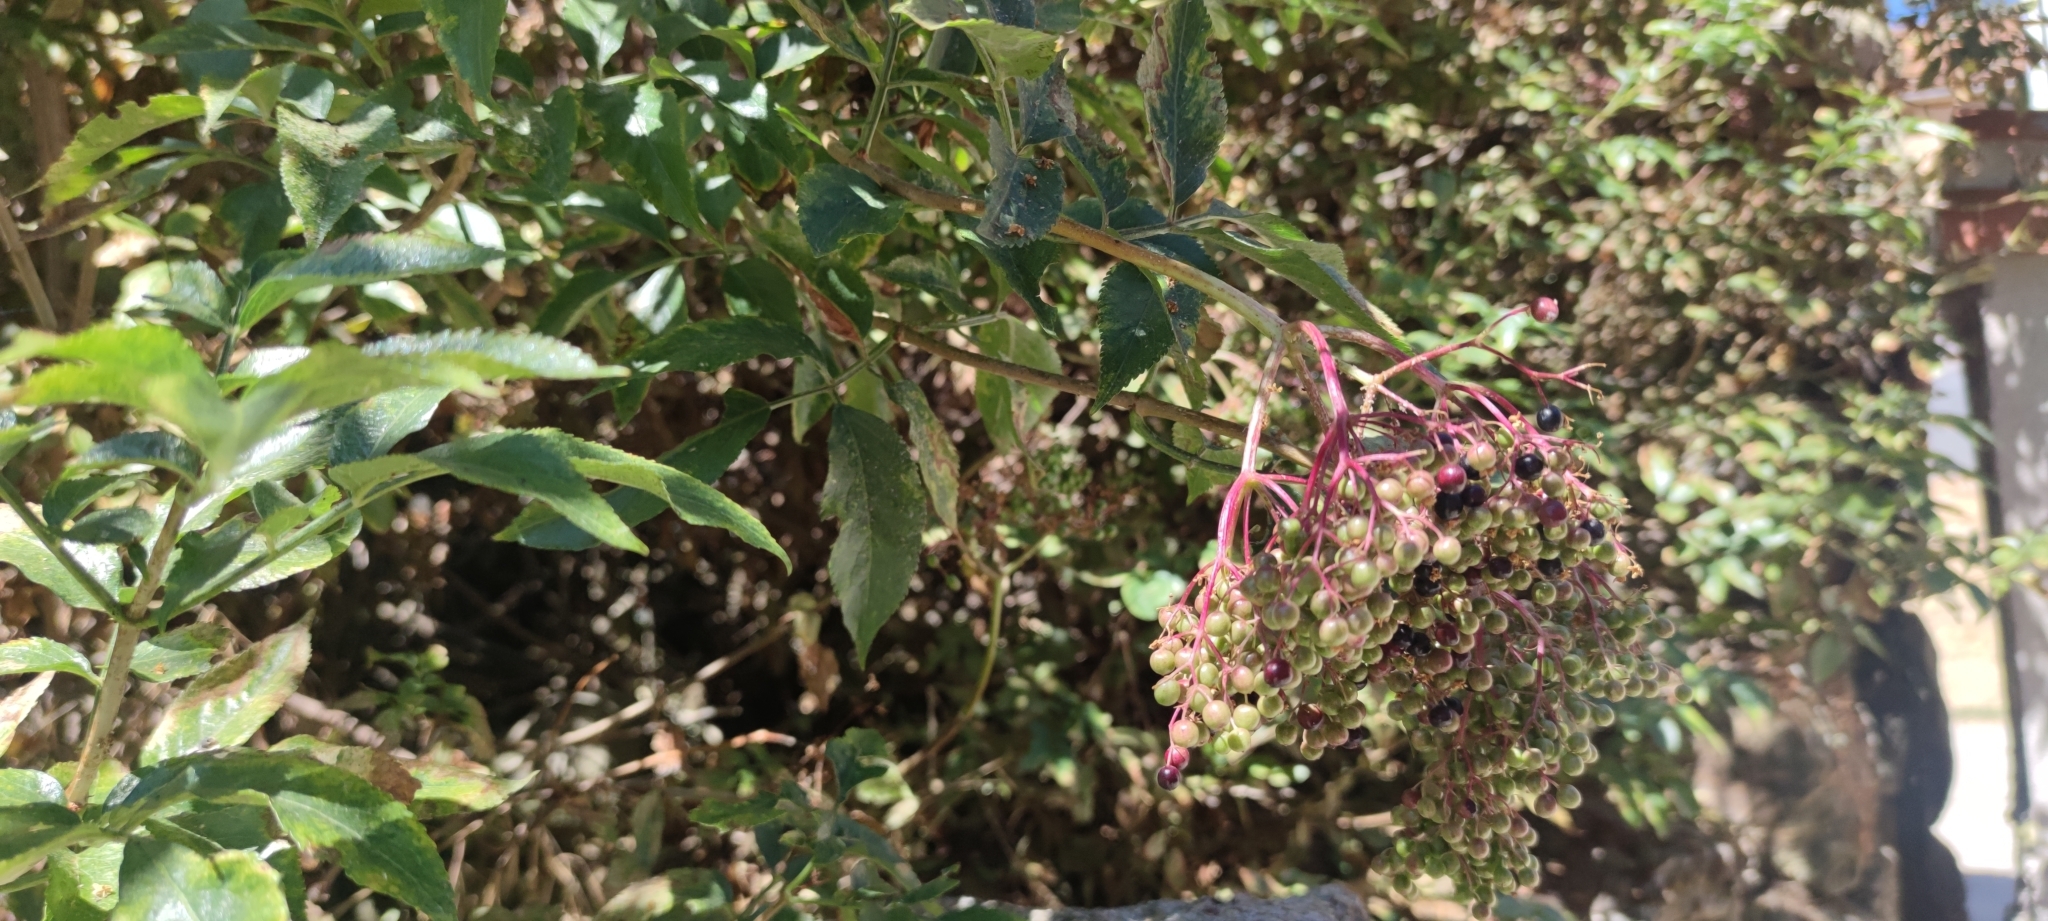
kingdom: Plantae
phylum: Tracheophyta
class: Magnoliopsida
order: Dipsacales
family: Viburnaceae
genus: Sambucus
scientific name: Sambucus nigra
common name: Elder
